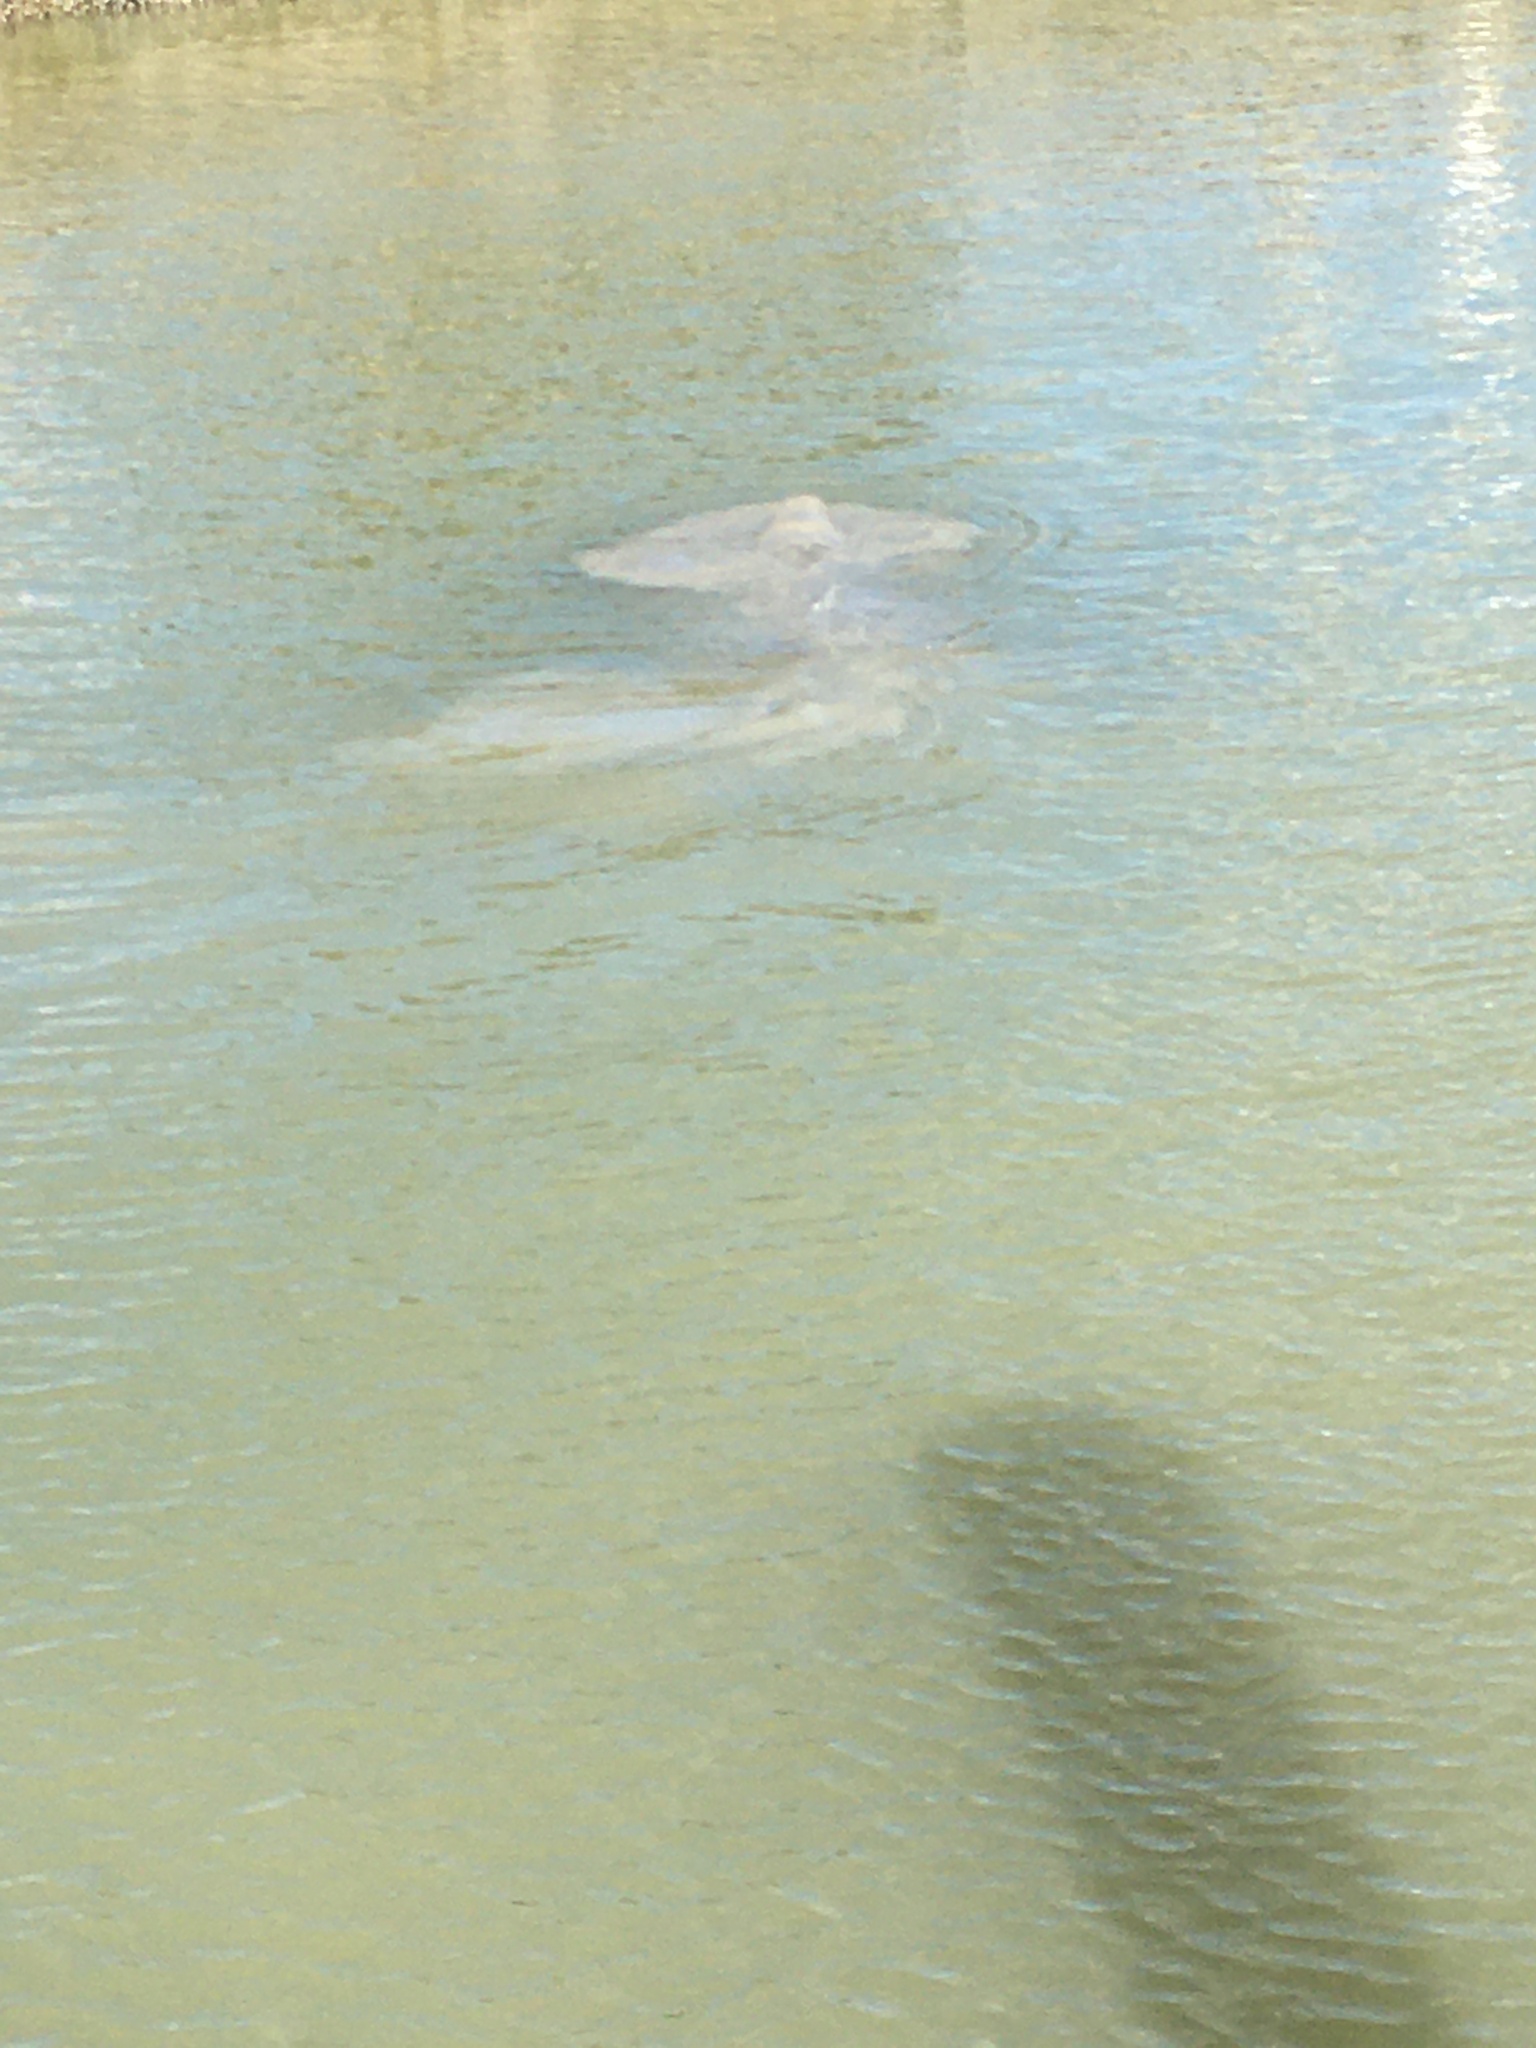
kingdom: Animalia
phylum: Chordata
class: Mammalia
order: Sirenia
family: Trichechidae
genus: Trichechus
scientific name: Trichechus manatus
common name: West indian manatee
